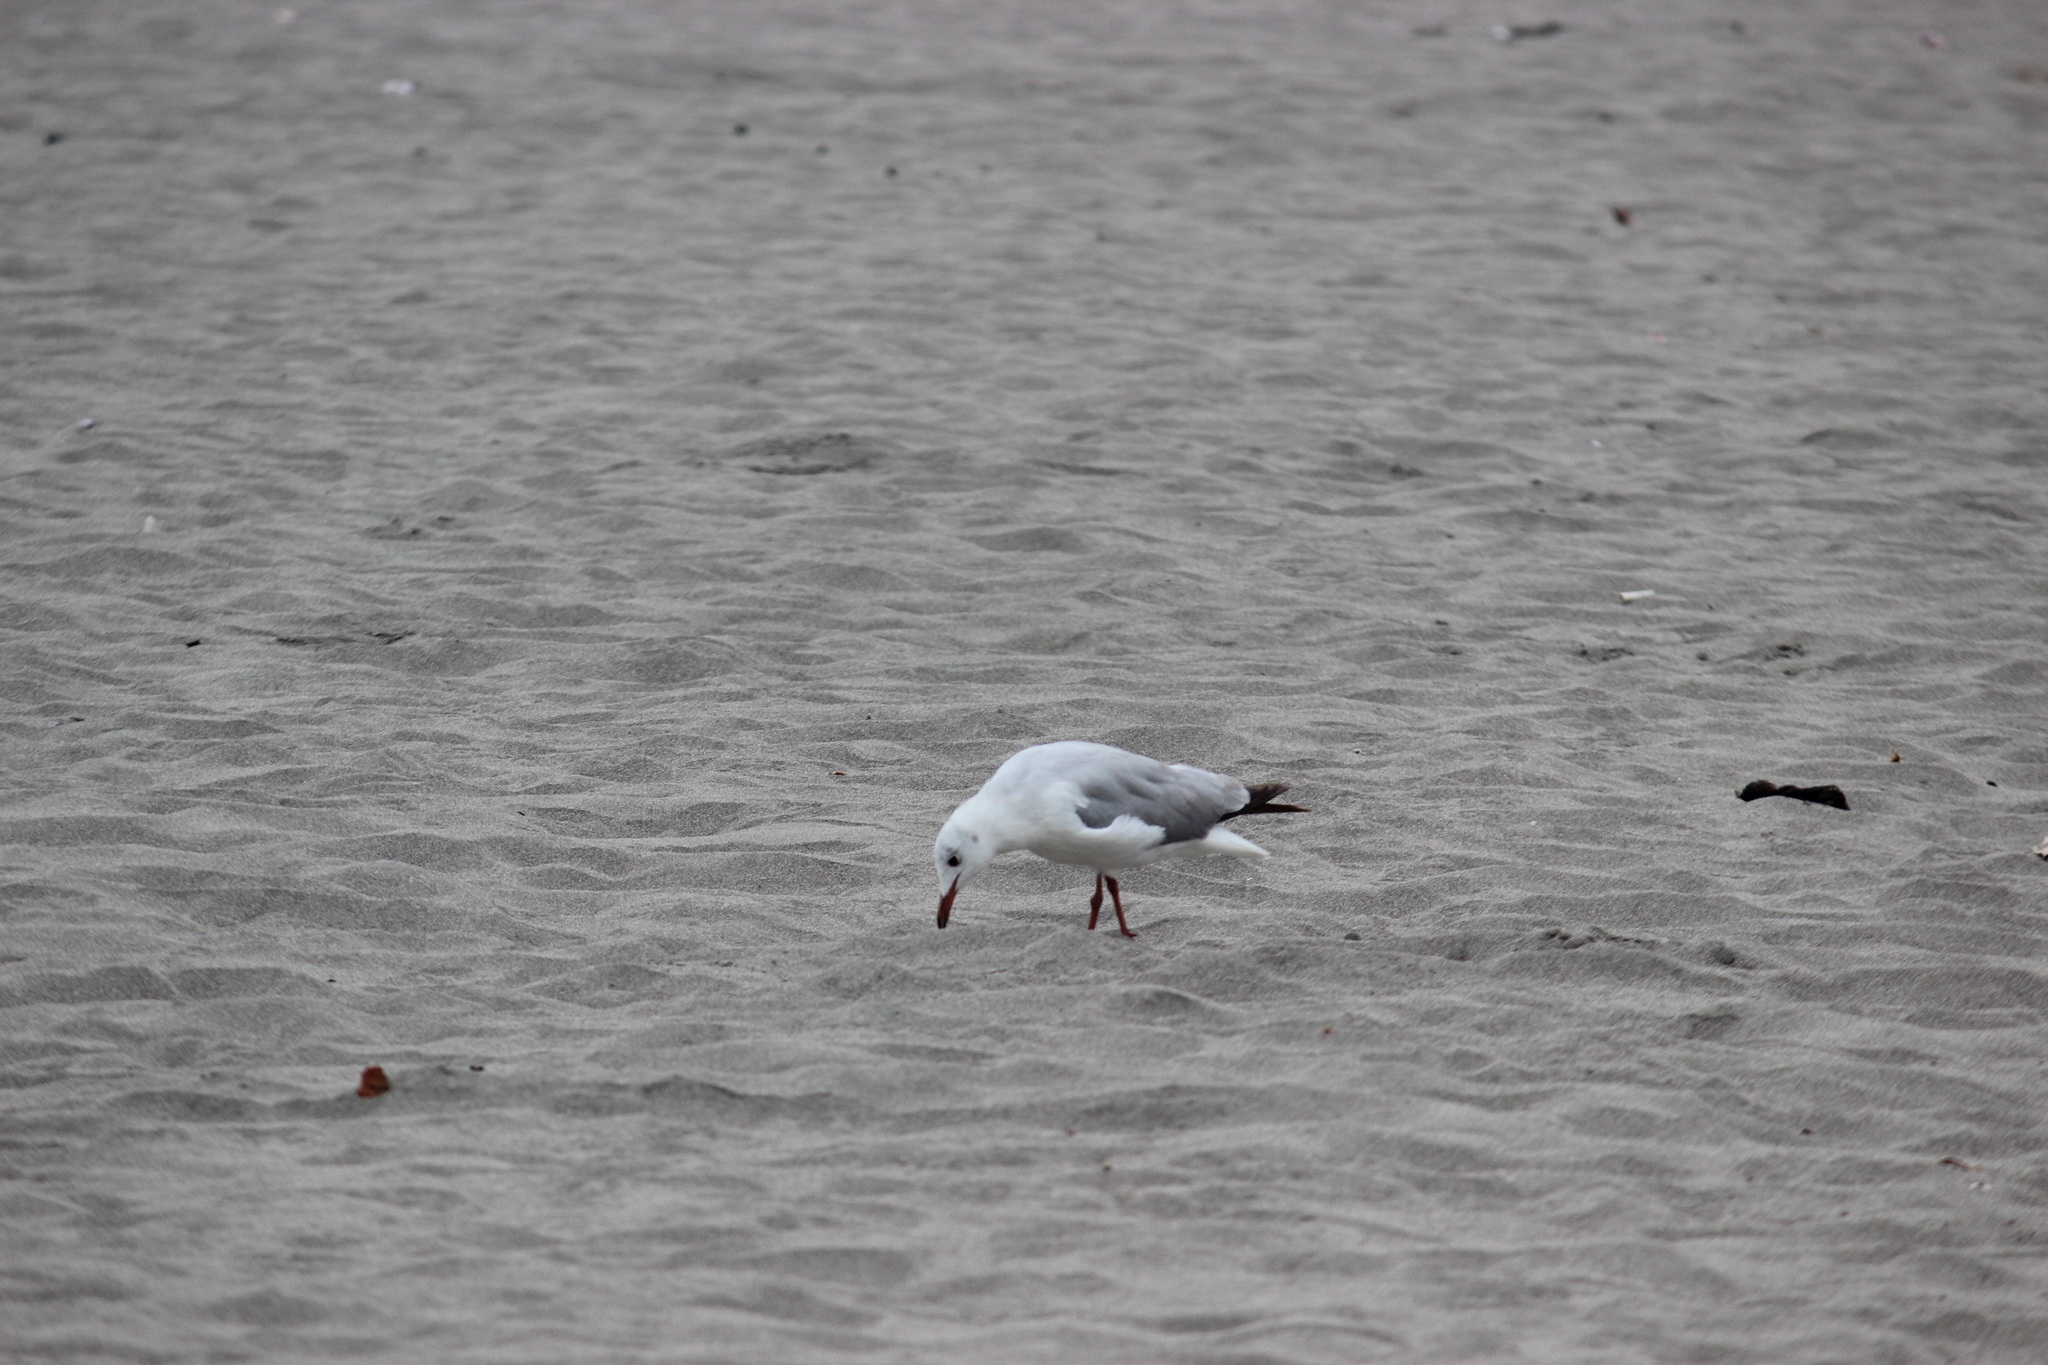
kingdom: Animalia
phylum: Chordata
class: Aves
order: Charadriiformes
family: Laridae
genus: Chroicocephalus
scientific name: Chroicocephalus cirrocephalus
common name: Grey-headed gull
